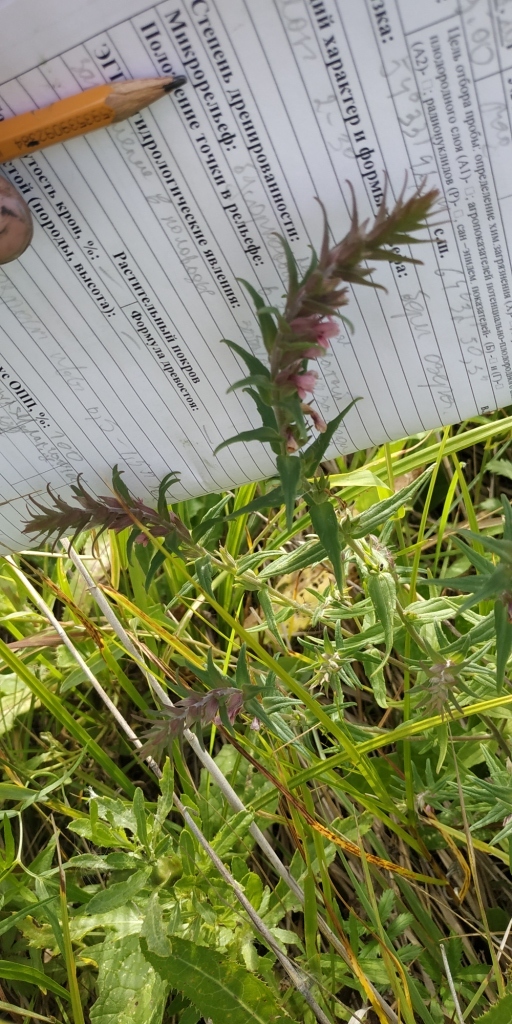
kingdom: Plantae
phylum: Tracheophyta
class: Magnoliopsida
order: Lamiales
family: Orobanchaceae
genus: Odontites
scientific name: Odontites vulgaris
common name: Broomrape
